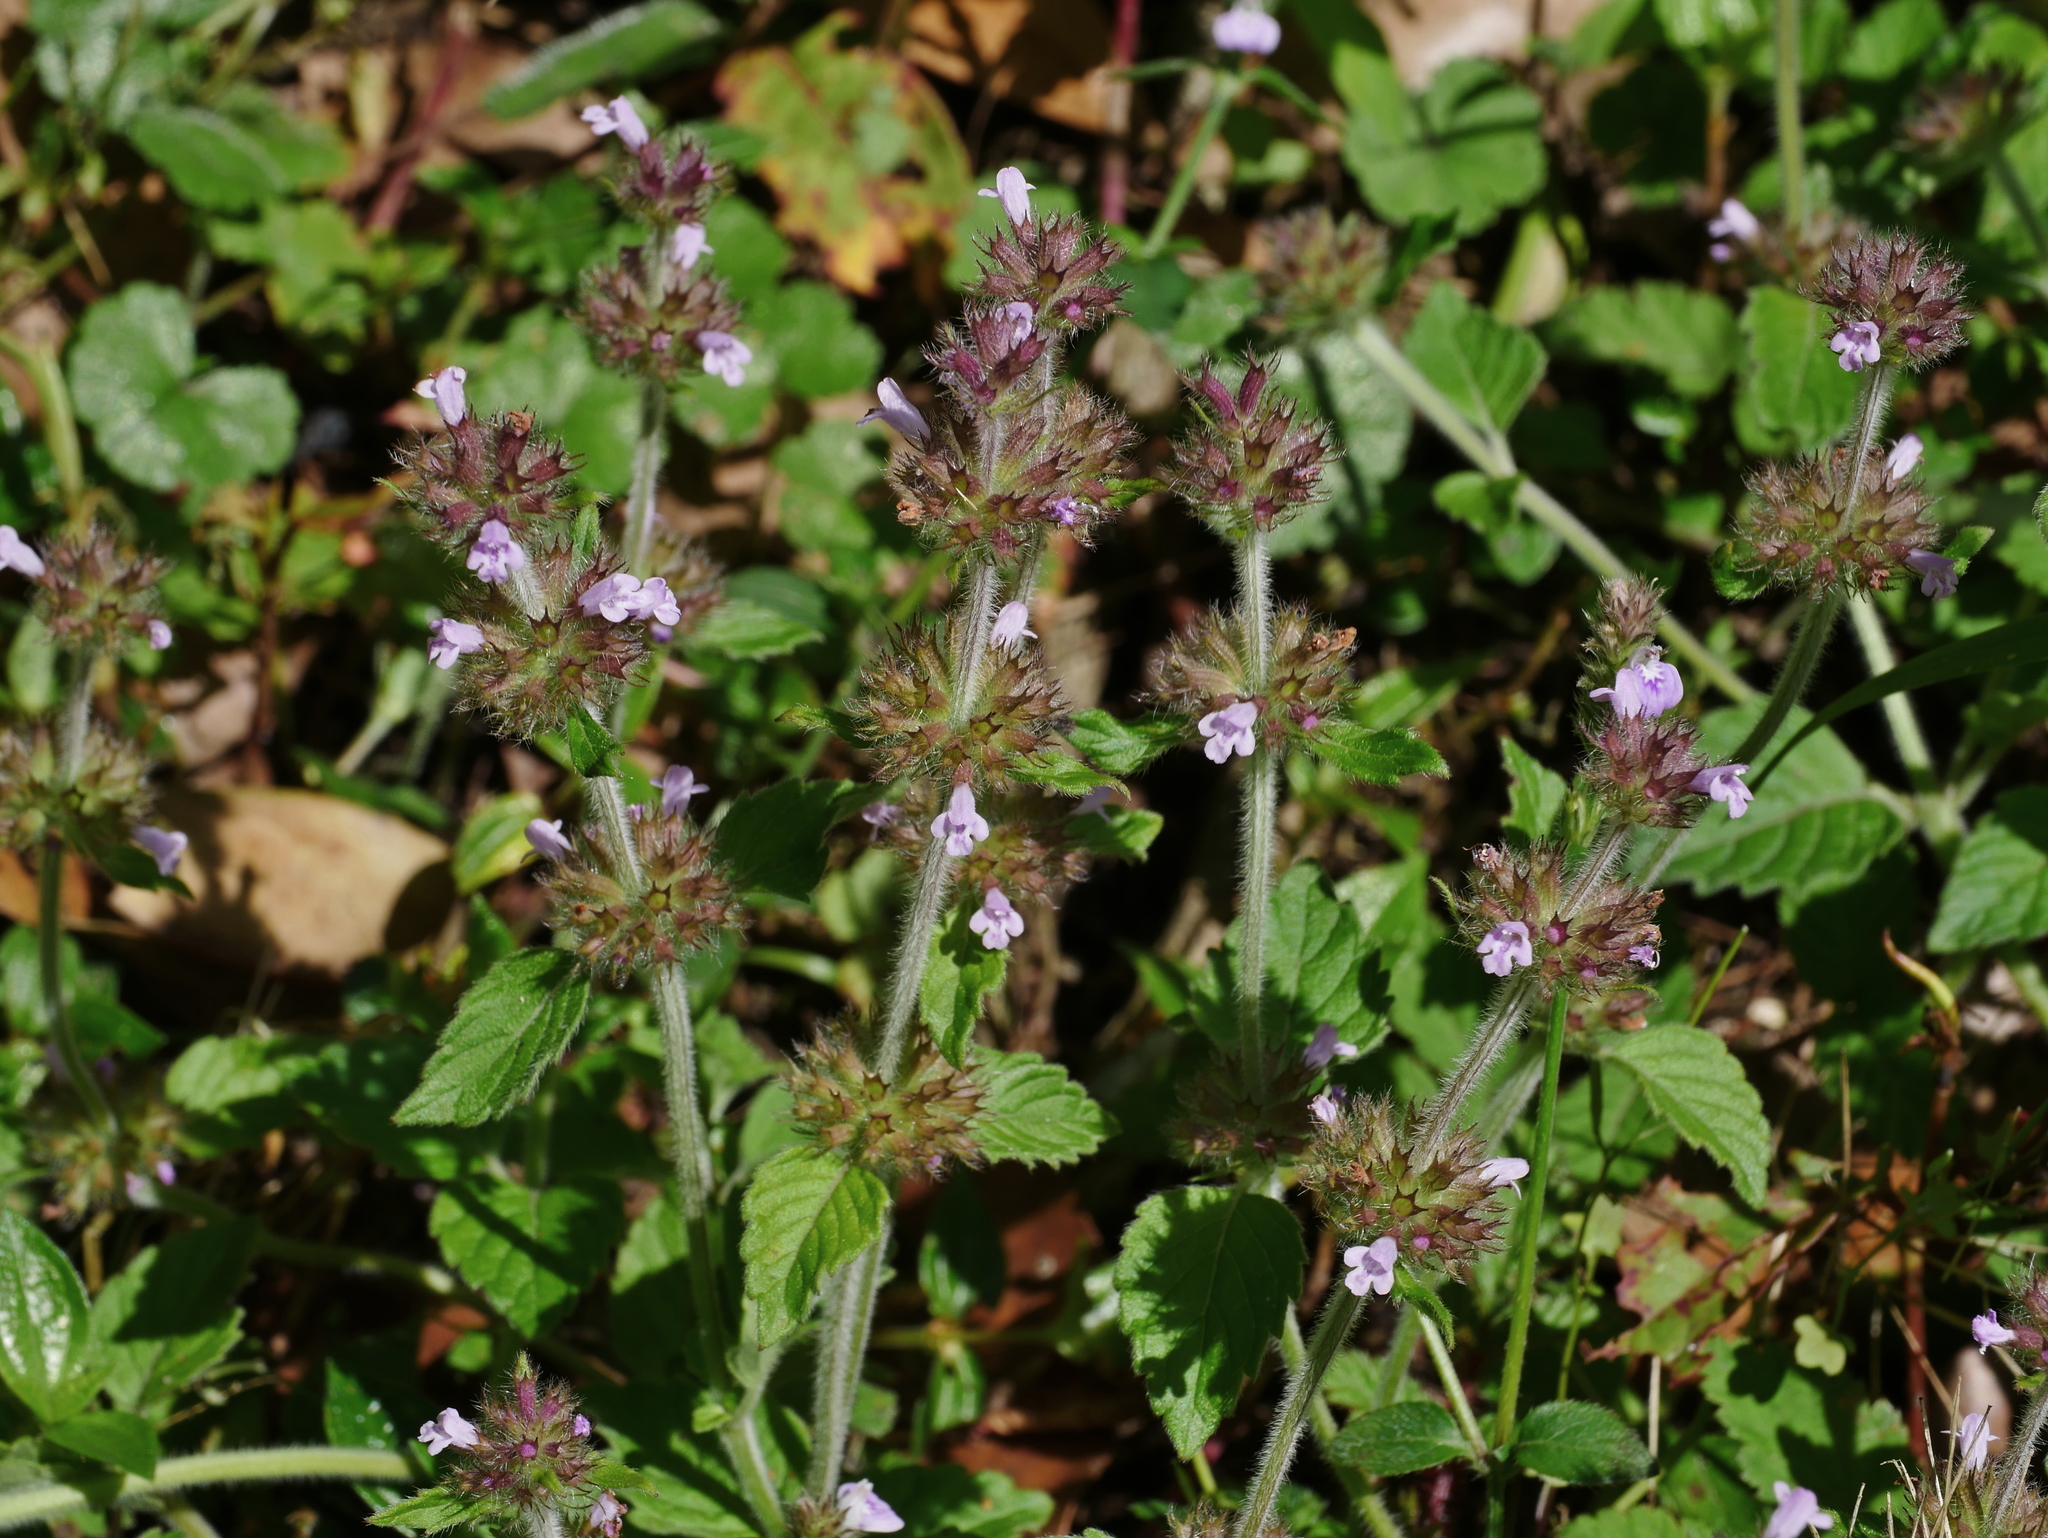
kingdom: Plantae
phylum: Tracheophyta
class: Magnoliopsida
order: Lamiales
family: Lamiaceae
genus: Clinopodium
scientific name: Clinopodium chinense
